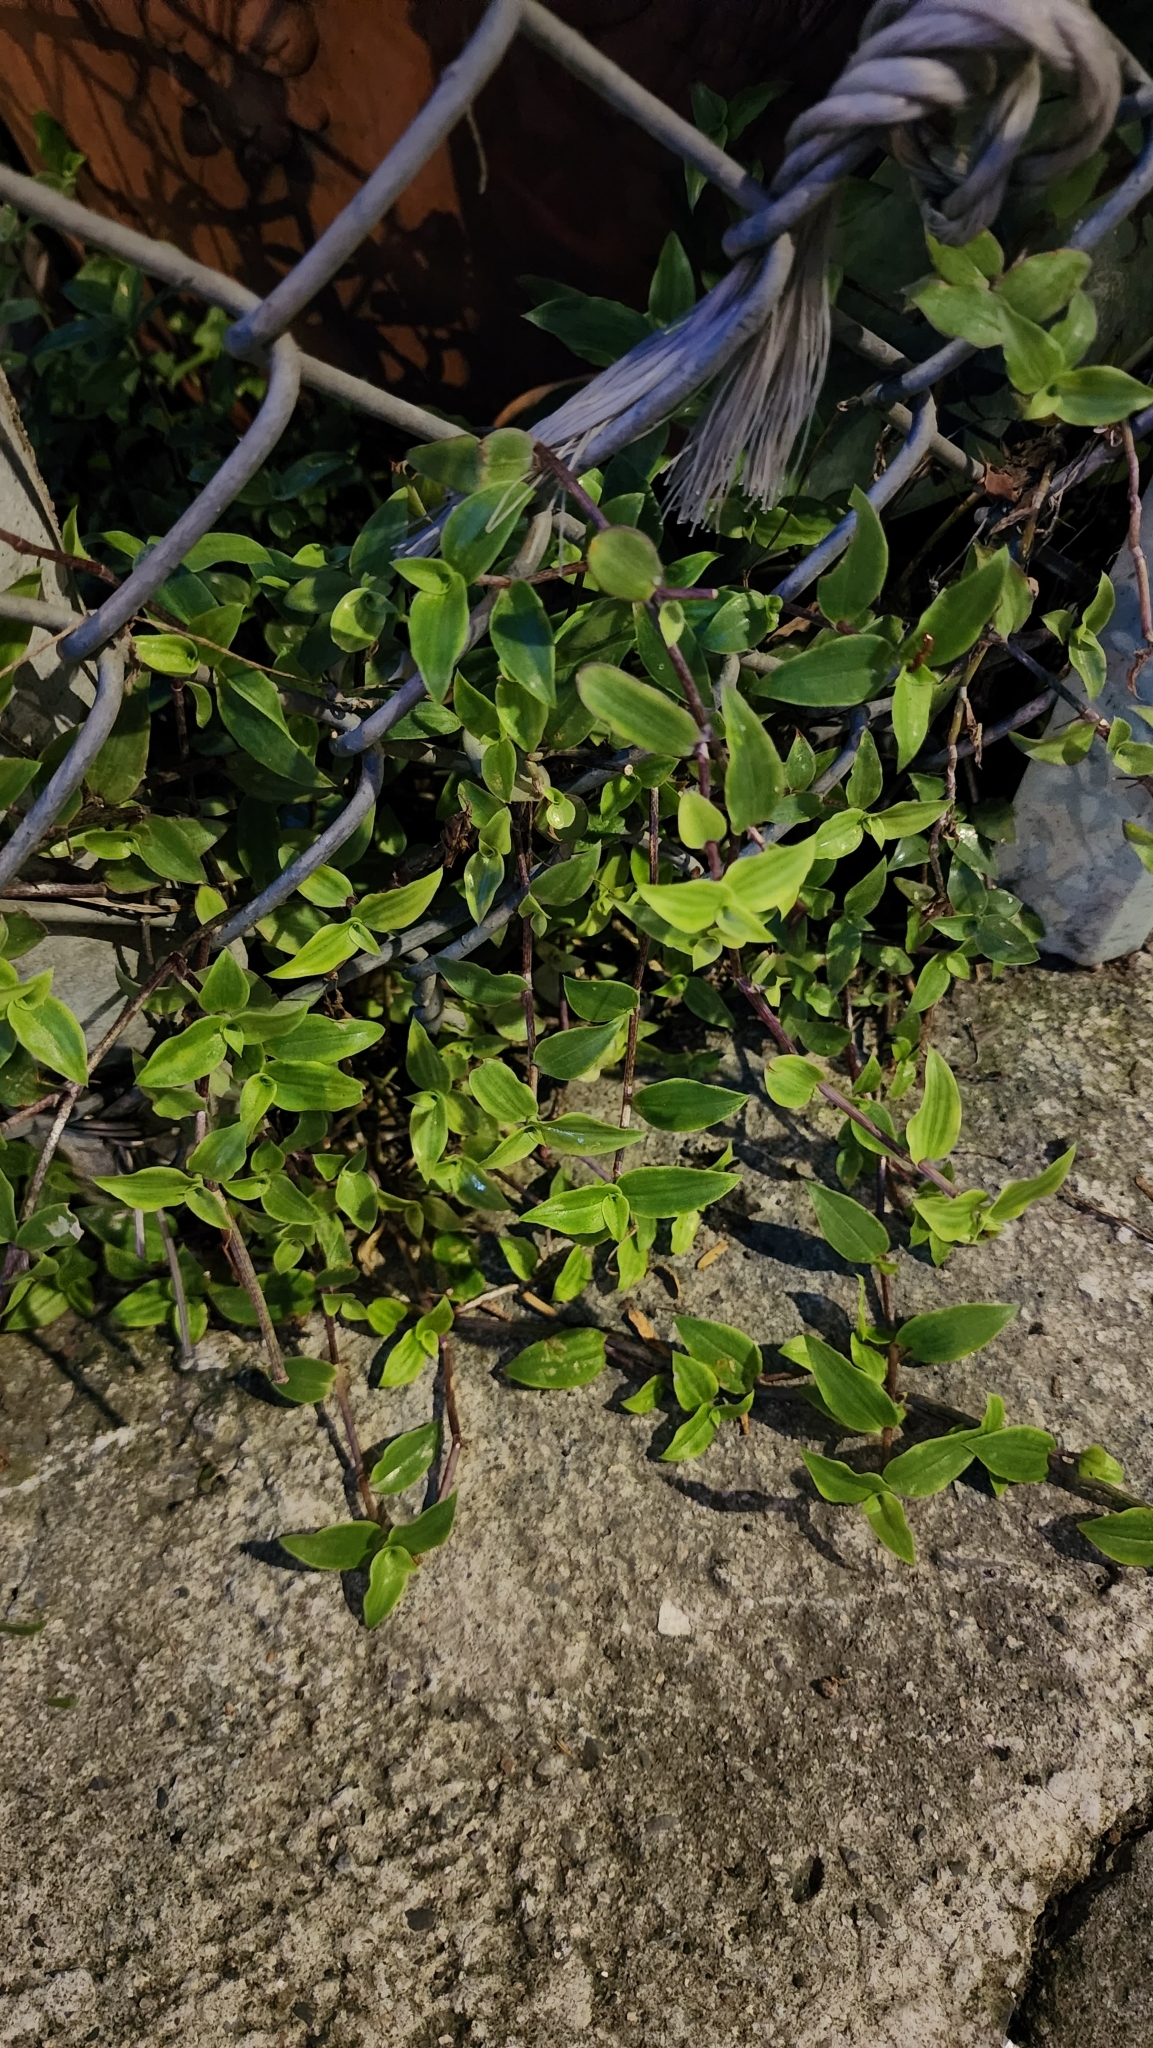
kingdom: Plantae
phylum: Tracheophyta
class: Liliopsida
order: Commelinales
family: Commelinaceae
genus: Callisia
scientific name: Callisia repens
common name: Creeping inchplant
